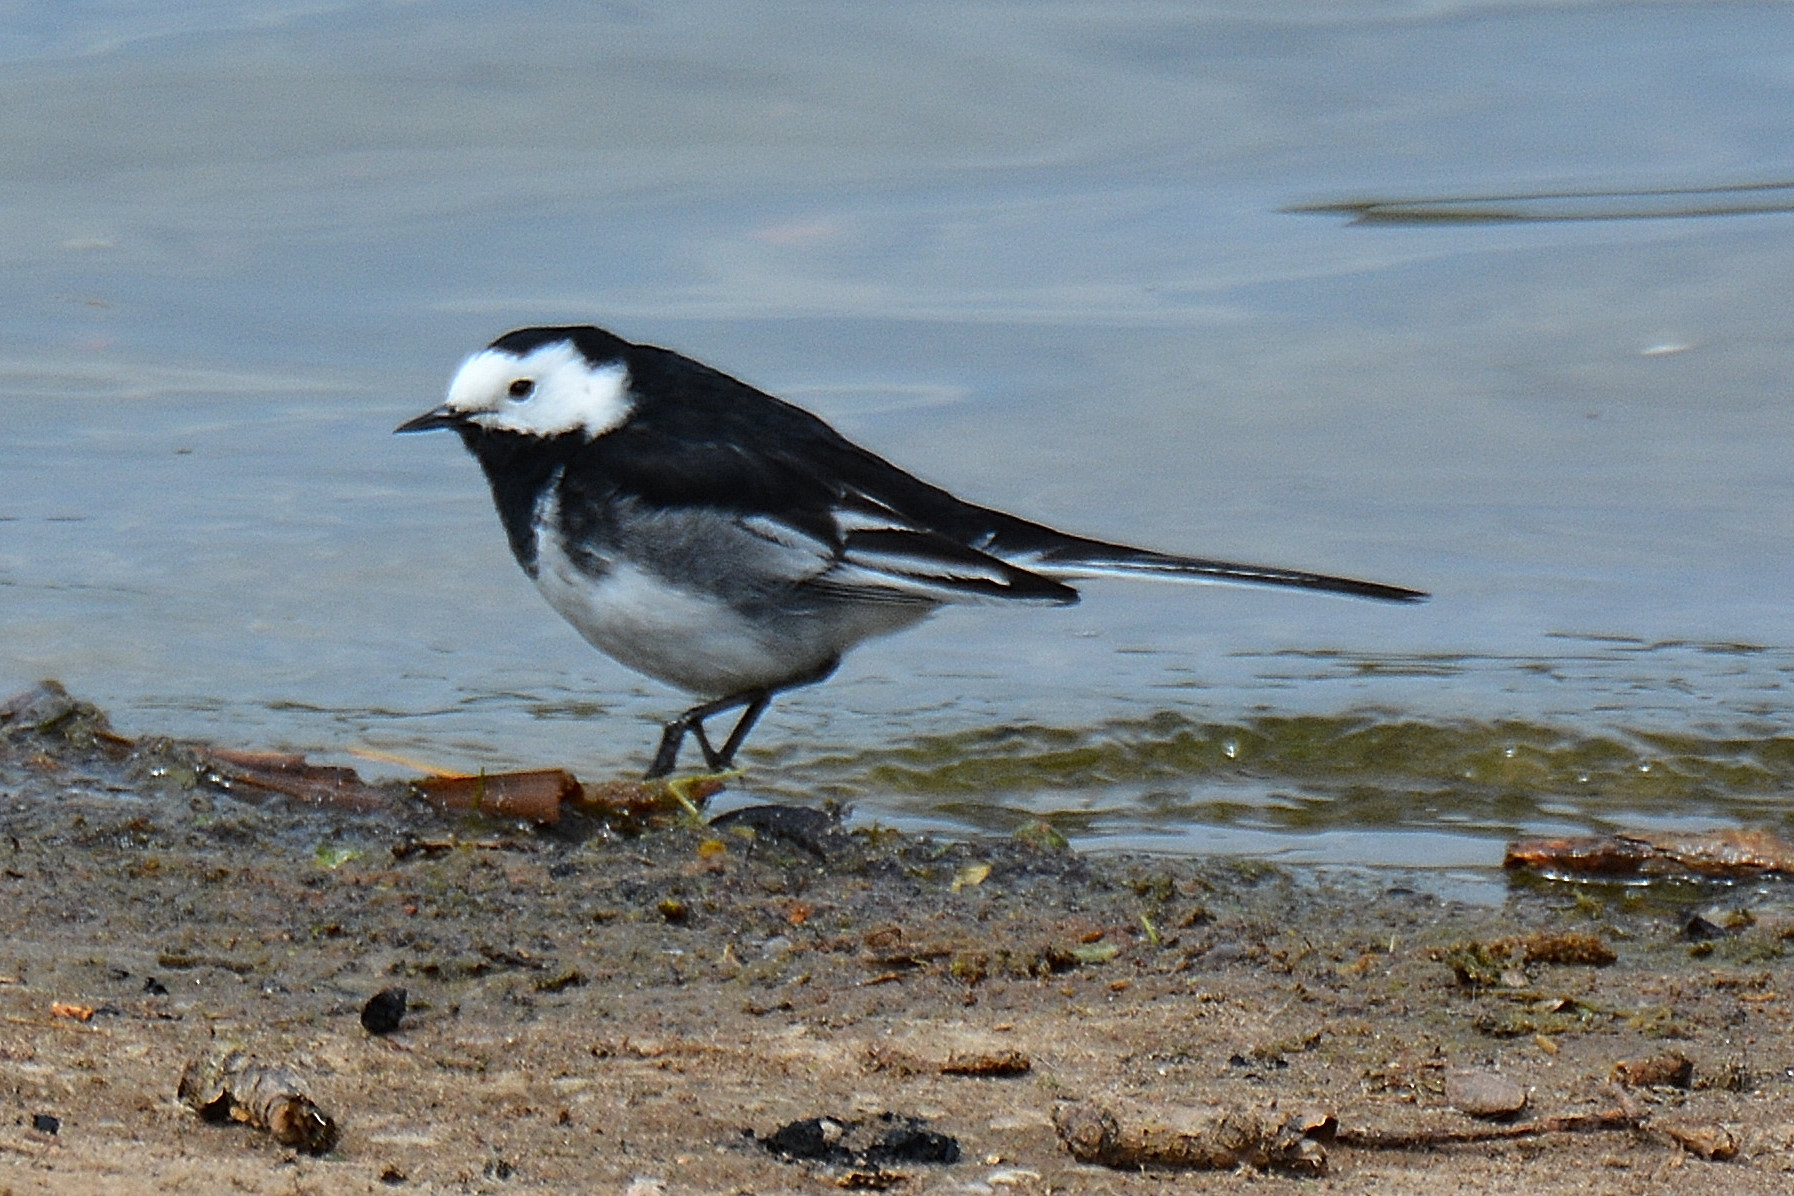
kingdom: Animalia
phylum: Chordata
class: Aves
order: Passeriformes
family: Motacillidae
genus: Motacilla
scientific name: Motacilla alba
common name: White wagtail
